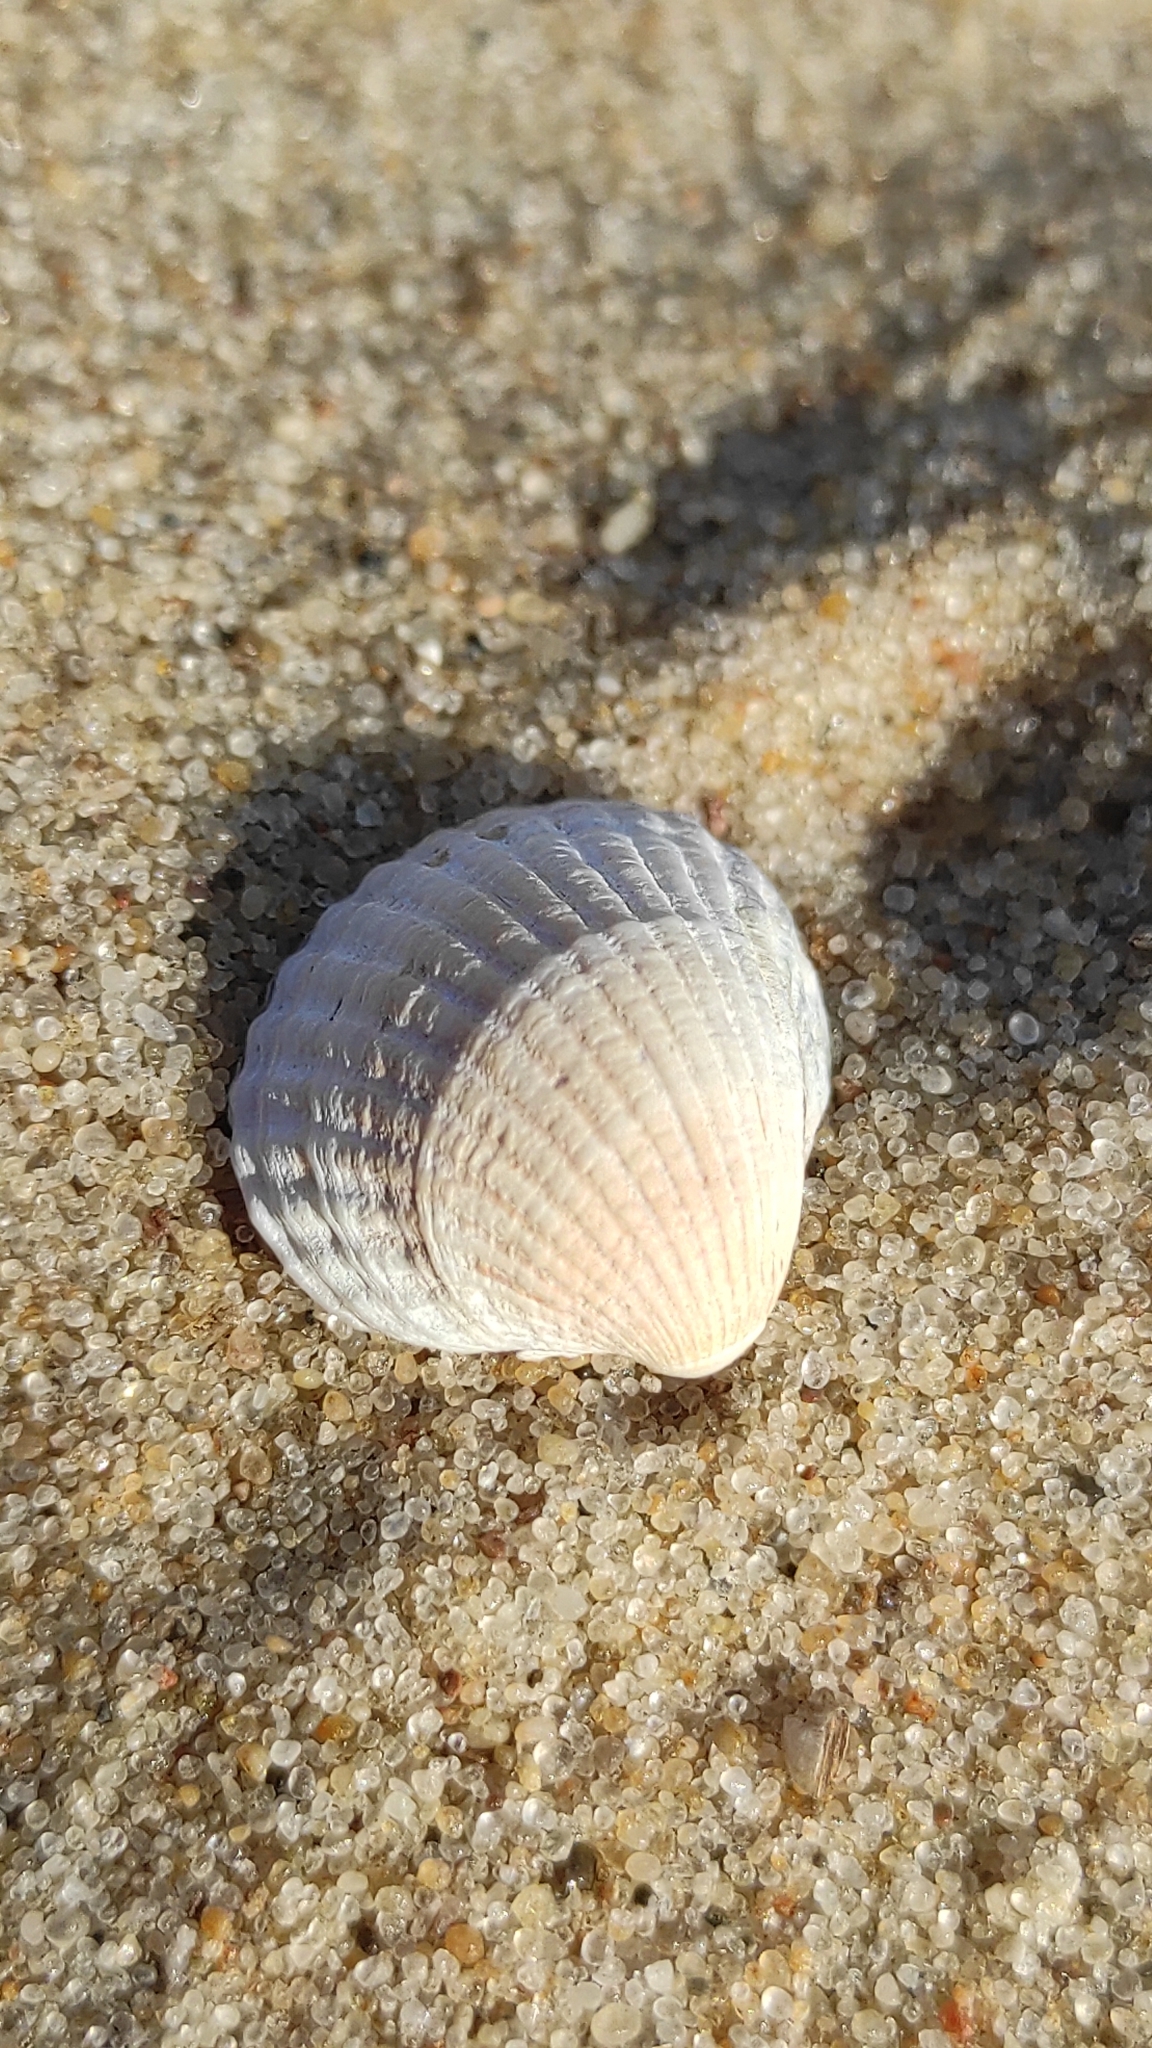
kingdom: Animalia
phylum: Mollusca
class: Bivalvia
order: Cardiida
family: Cardiidae
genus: Cerastoderma
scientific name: Cerastoderma glaucum
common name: Lagoon cockle
